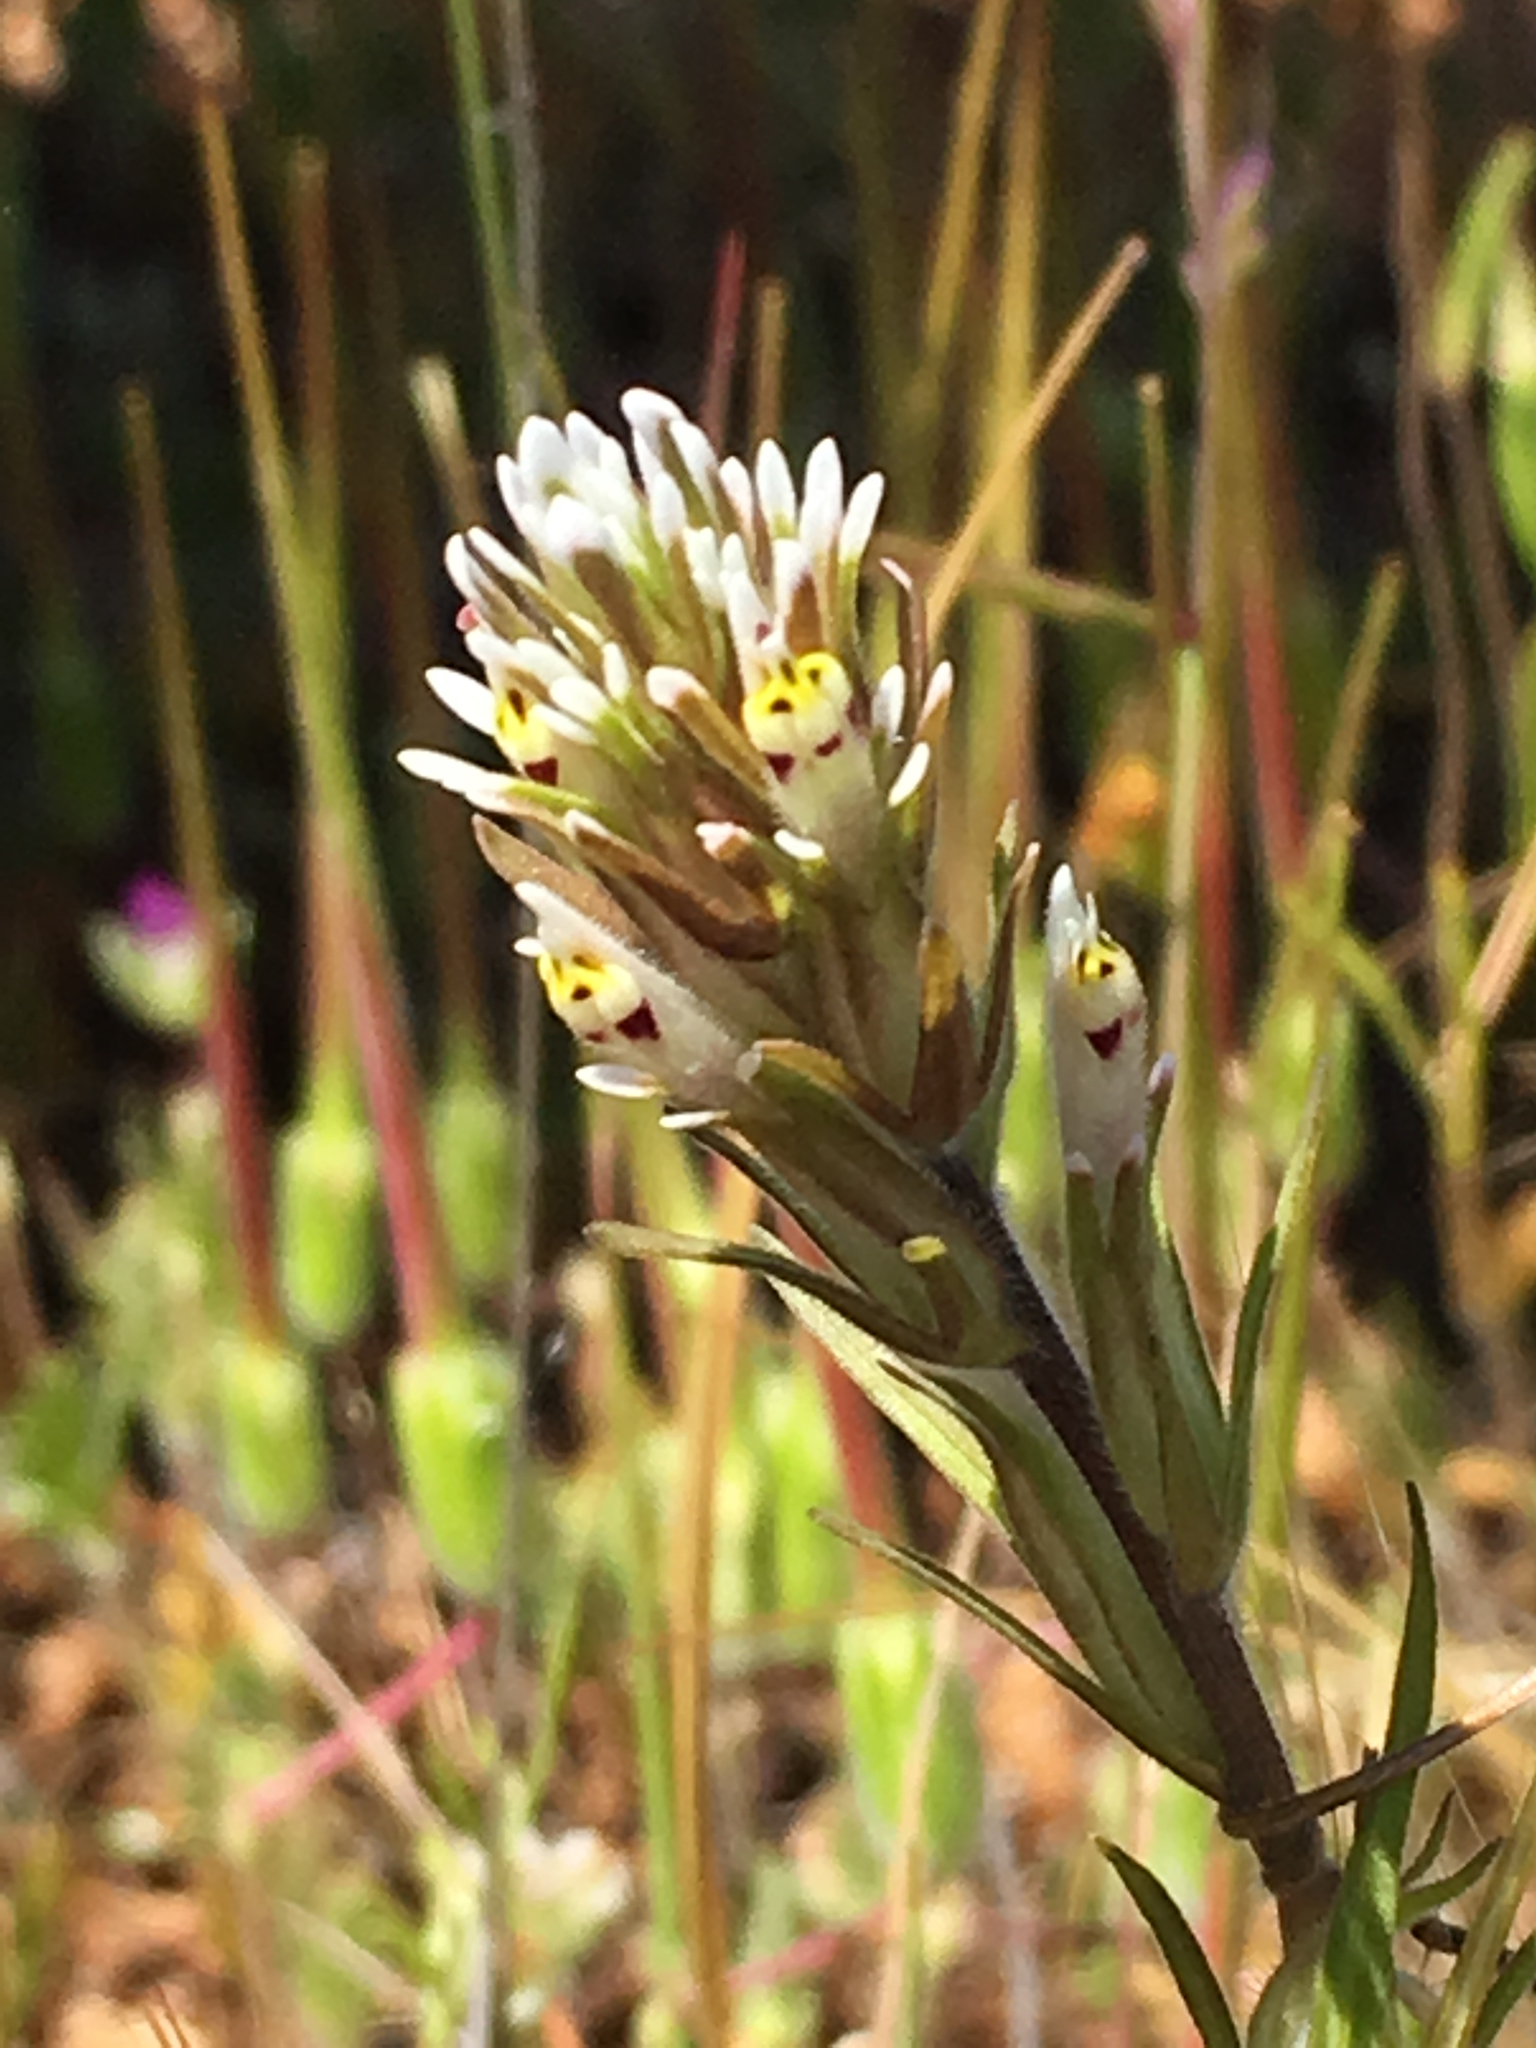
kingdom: Plantae
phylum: Tracheophyta
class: Magnoliopsida
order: Lamiales
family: Orobanchaceae
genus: Castilleja
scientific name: Castilleja attenuata
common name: Valley tassels
